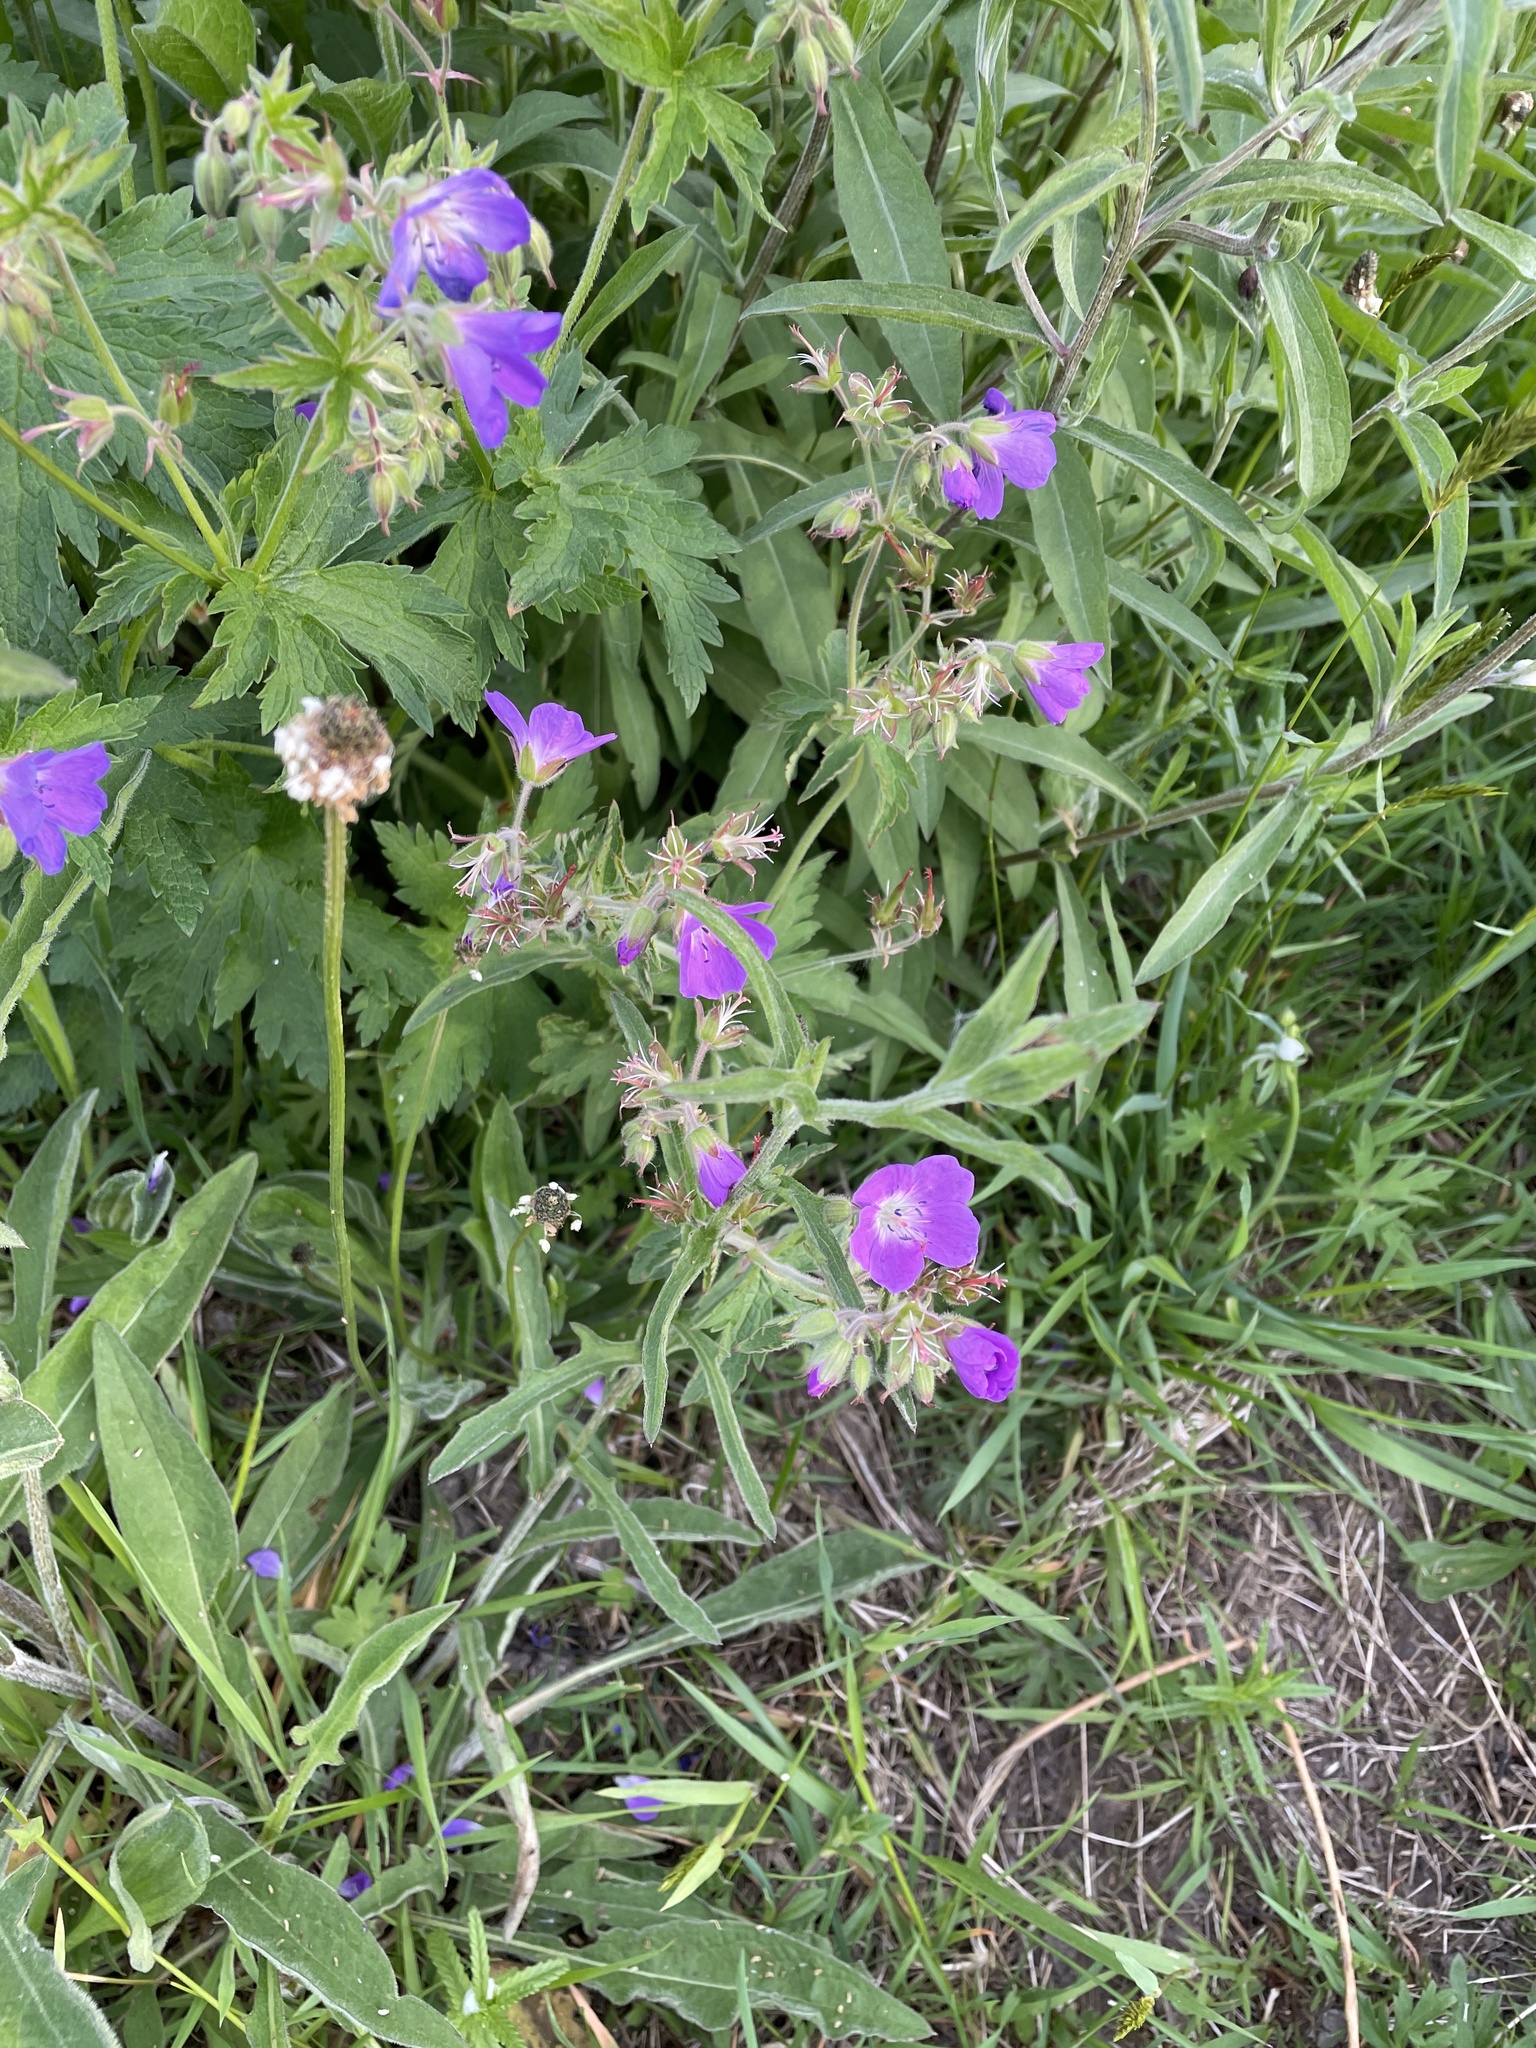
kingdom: Plantae
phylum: Tracheophyta
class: Magnoliopsida
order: Geraniales
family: Geraniaceae
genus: Geranium
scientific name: Geranium sylvaticum
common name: Wood crane's-bill
